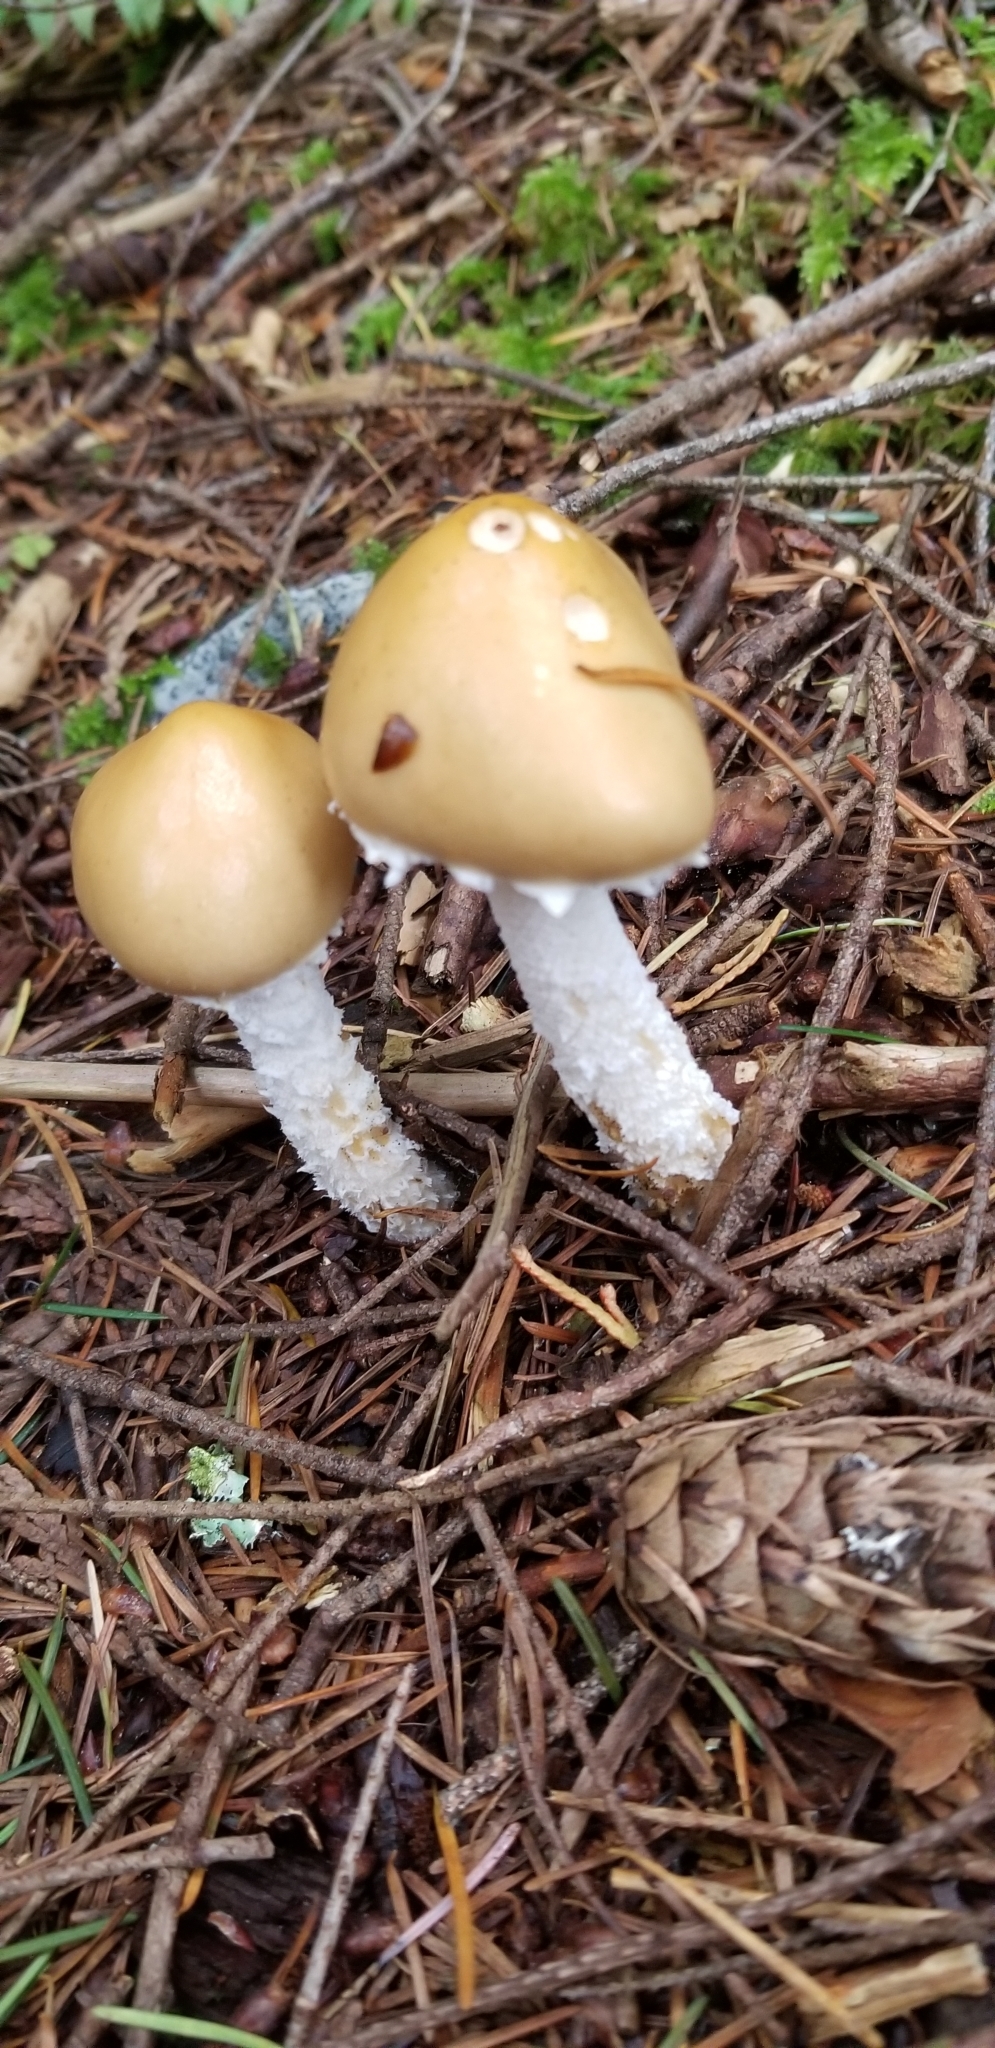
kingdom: Fungi
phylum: Basidiomycota
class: Agaricomycetes
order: Agaricales
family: Strophariaceae
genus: Stropharia
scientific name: Stropharia ambigua
